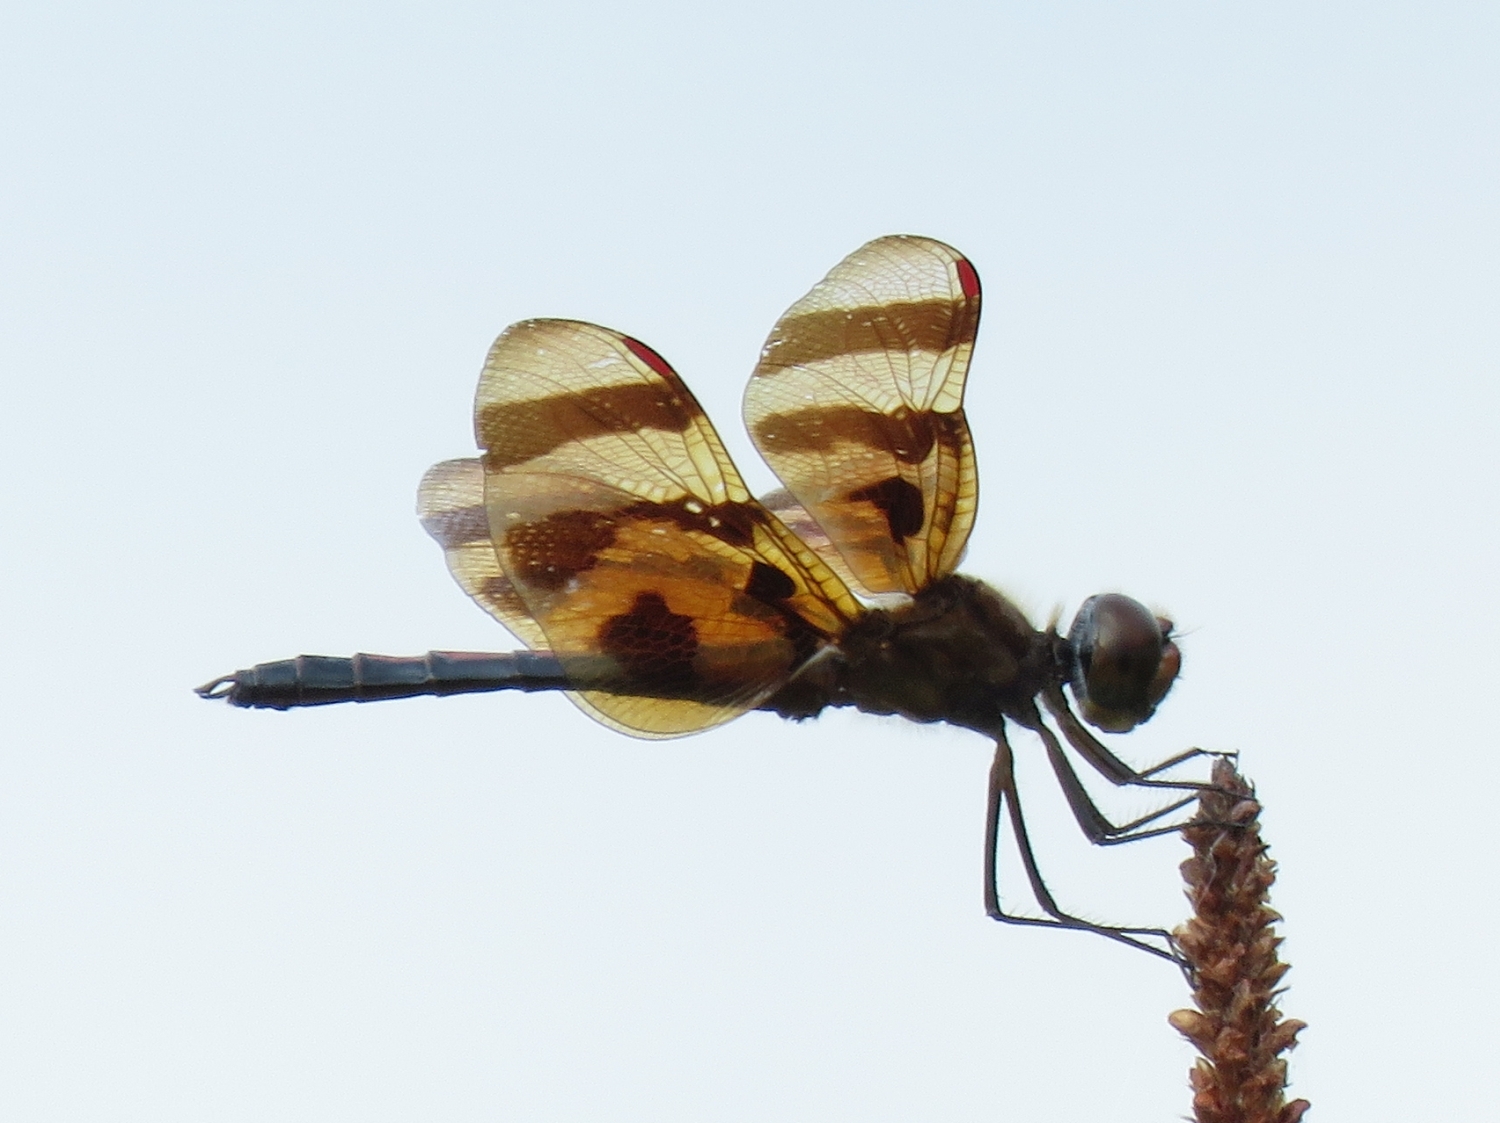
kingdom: Animalia
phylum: Arthropoda
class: Insecta
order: Odonata
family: Libellulidae
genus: Celithemis
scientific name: Celithemis eponina
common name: Halloween pennant
